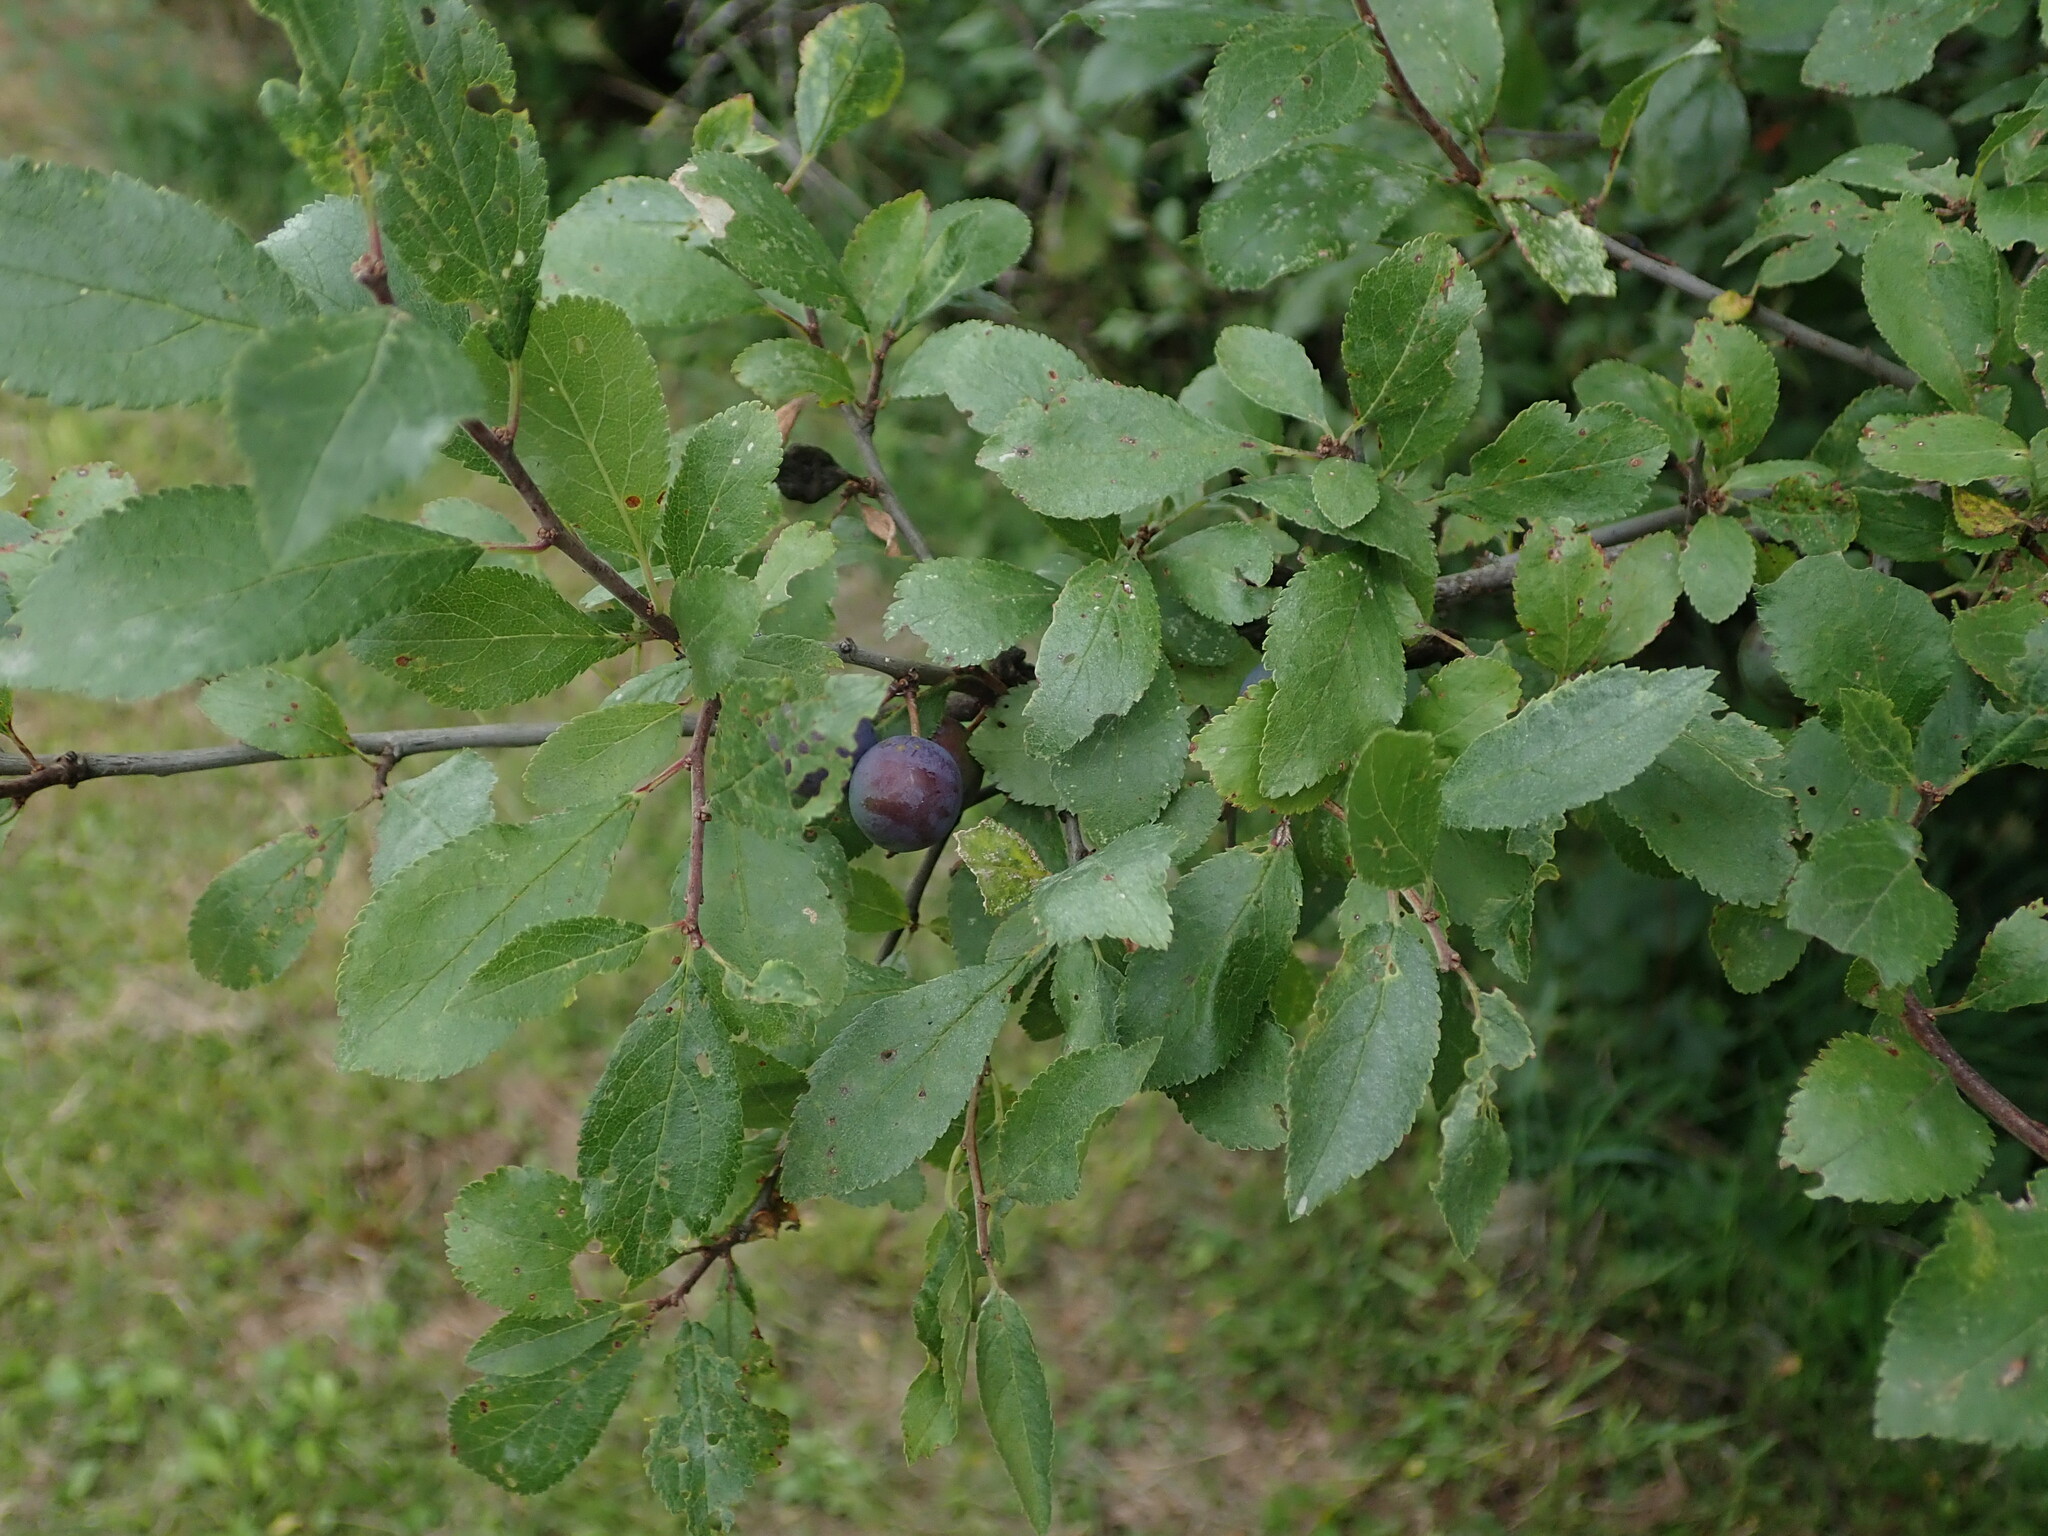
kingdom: Plantae
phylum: Tracheophyta
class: Magnoliopsida
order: Rosales
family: Rosaceae
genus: Prunus
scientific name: Prunus spinosa
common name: Blackthorn
